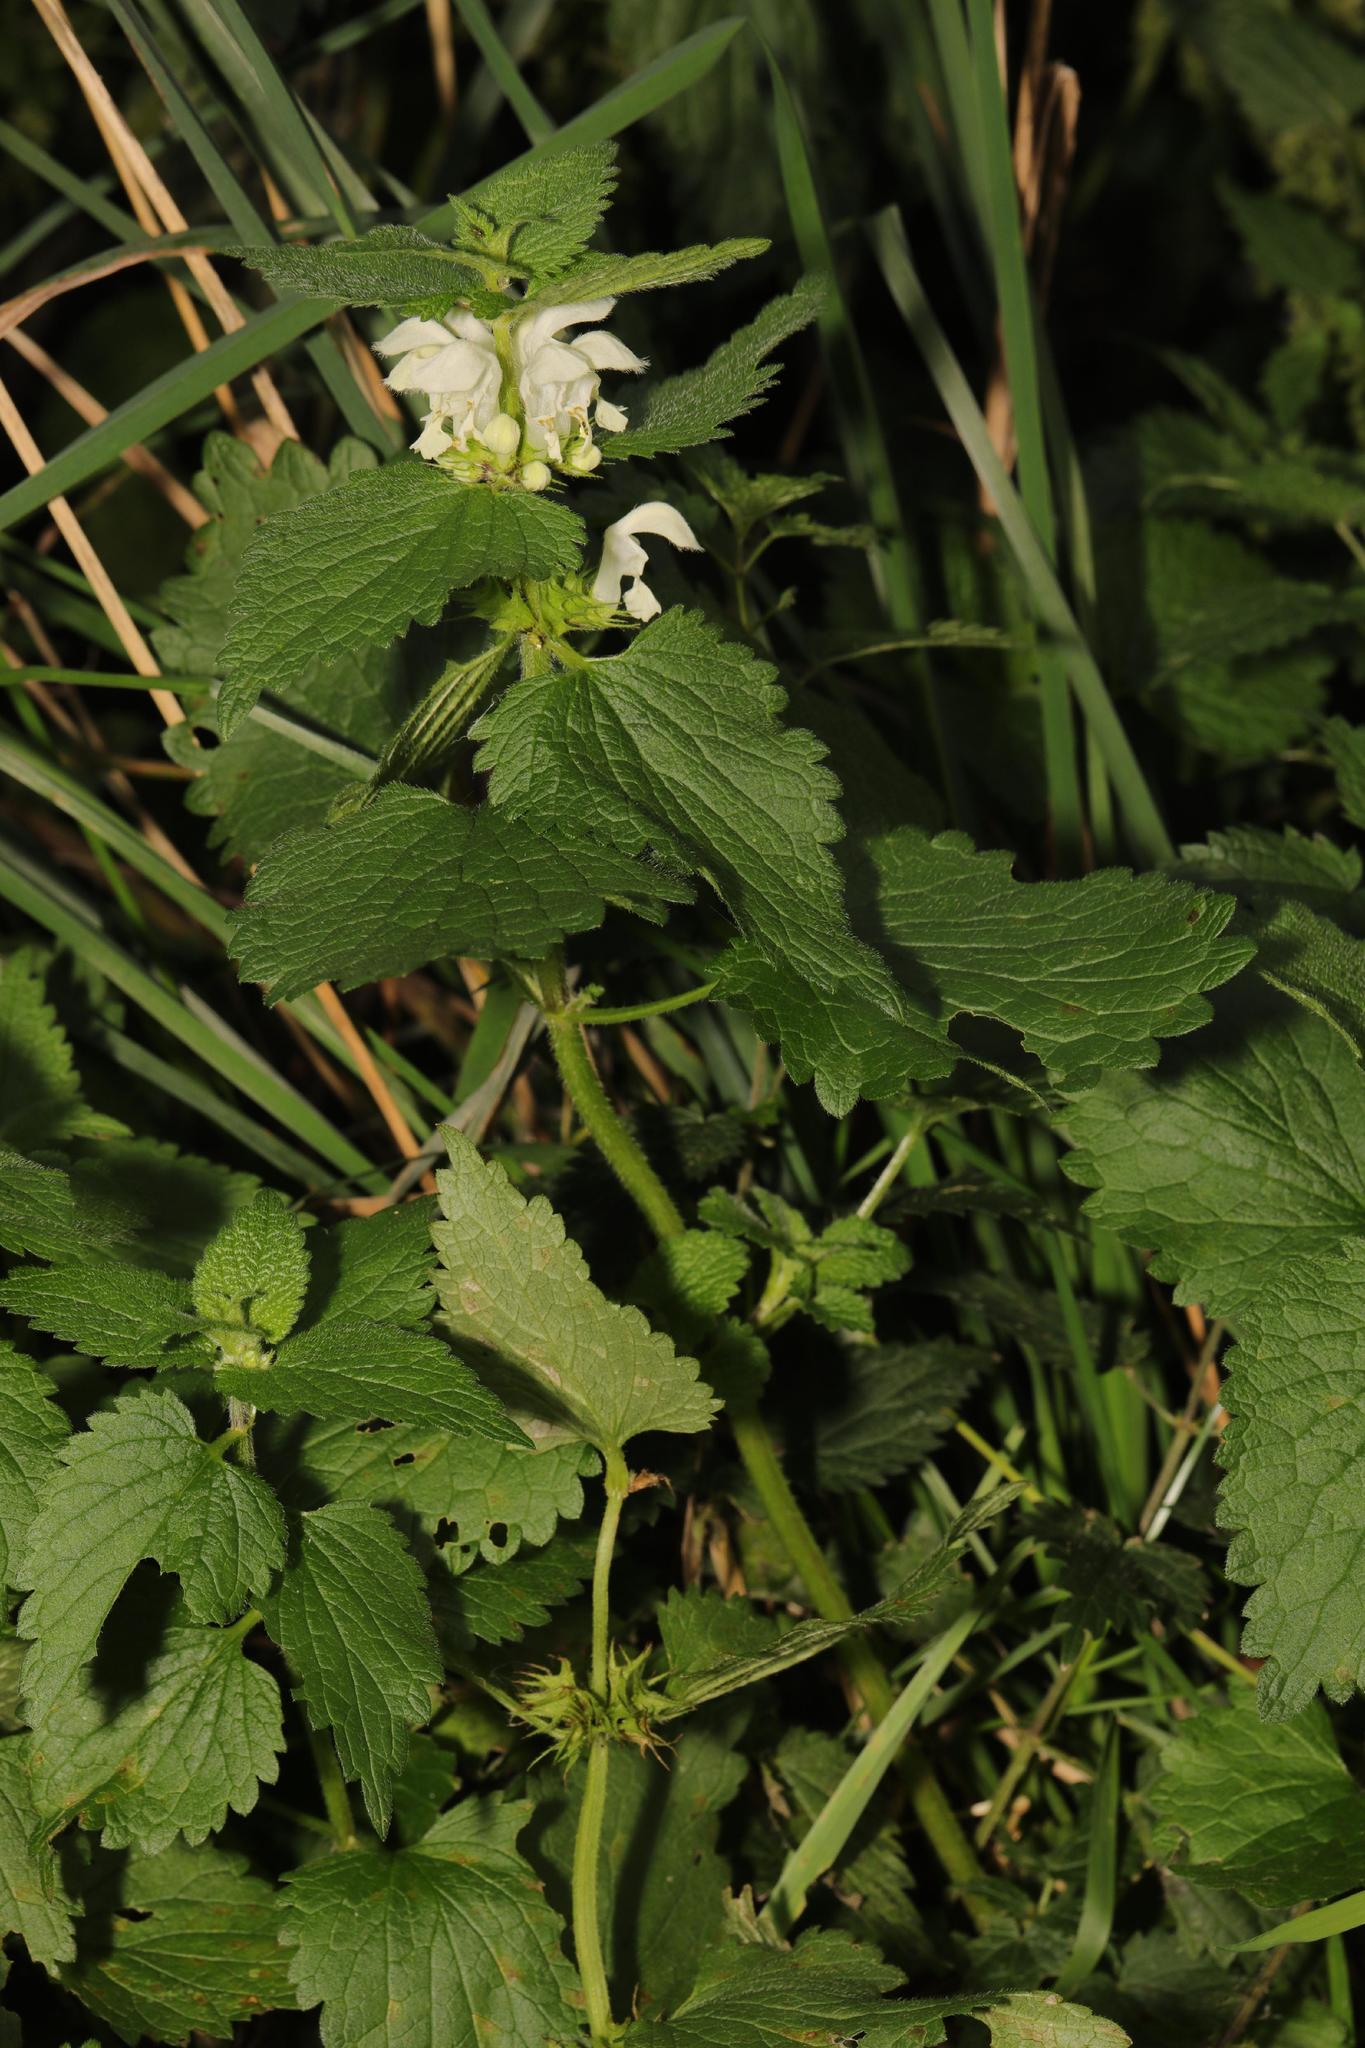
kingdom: Plantae
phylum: Tracheophyta
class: Magnoliopsida
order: Lamiales
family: Lamiaceae
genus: Lamium
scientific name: Lamium album
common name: White dead-nettle
